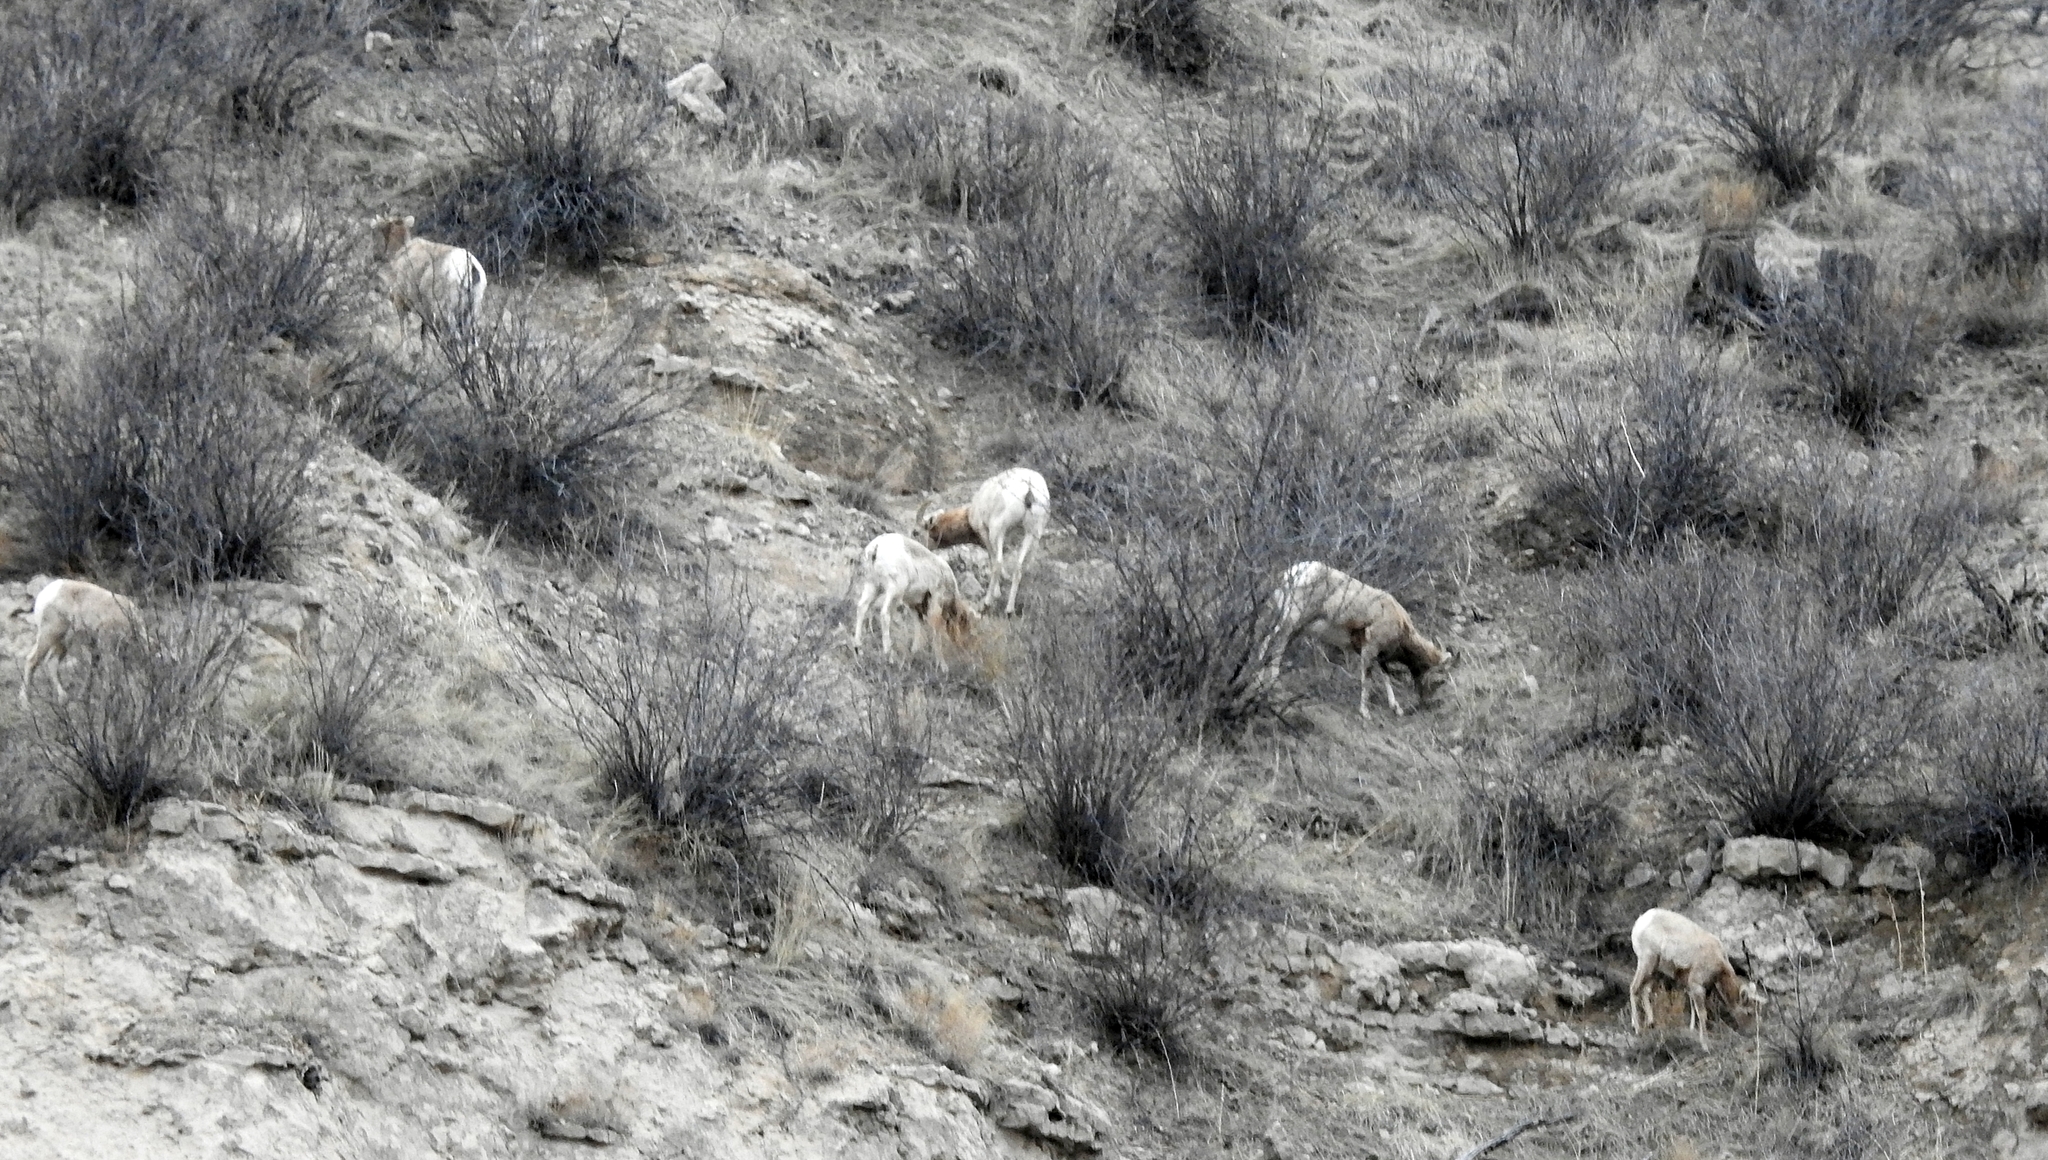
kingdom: Animalia
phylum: Chordata
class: Mammalia
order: Artiodactyla
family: Bovidae
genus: Ovis
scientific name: Ovis canadensis
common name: Bighorn sheep
